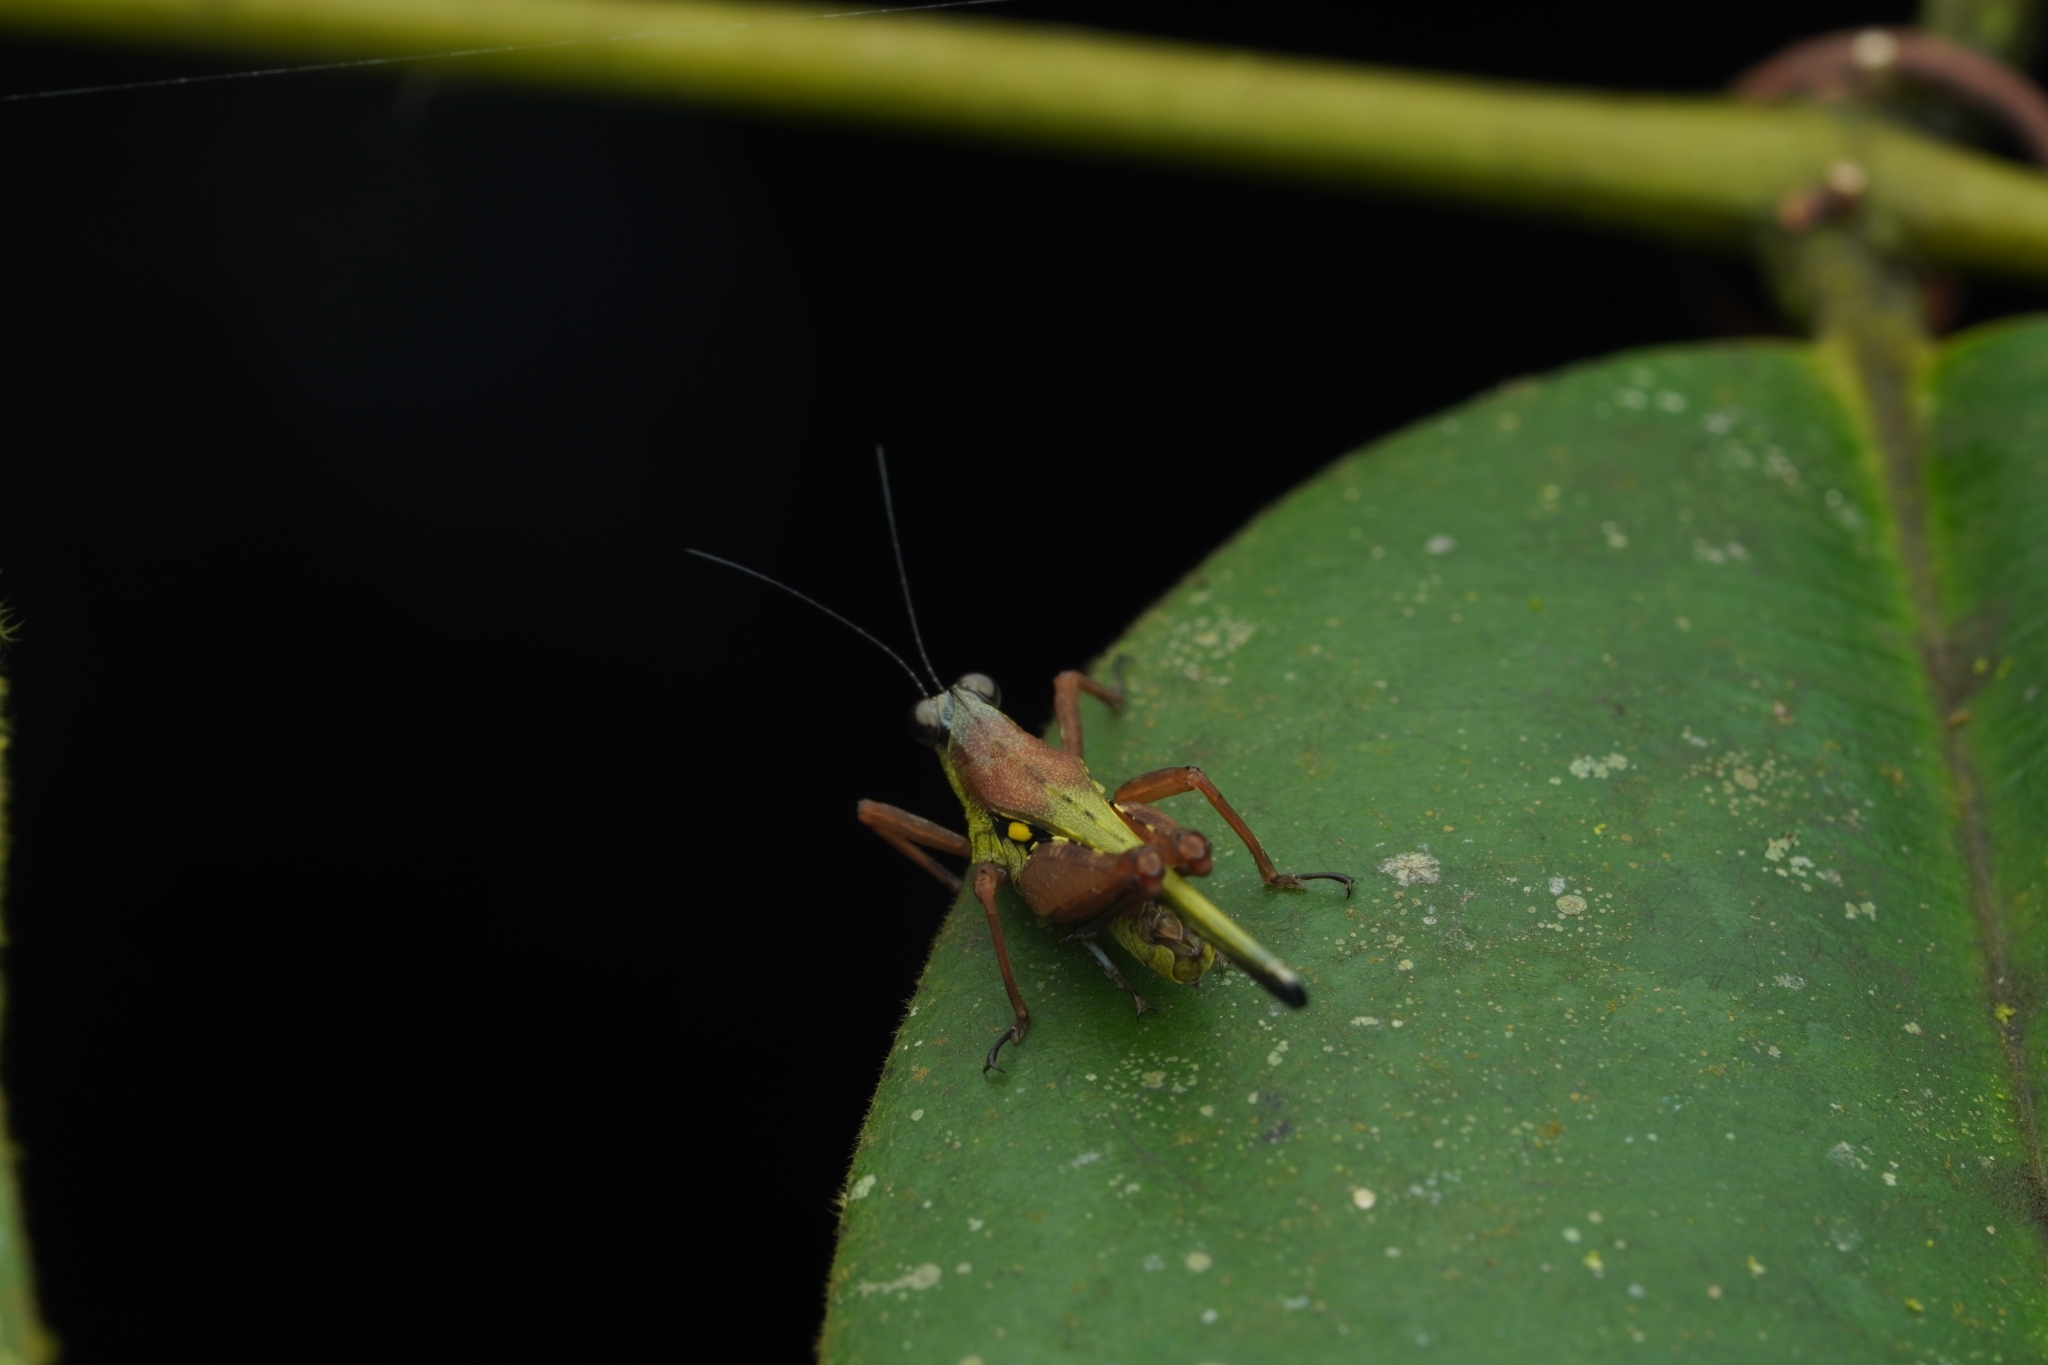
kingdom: Animalia
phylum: Arthropoda
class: Insecta
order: Orthoptera
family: Tetrigidae
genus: Scaria
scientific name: Scaria
